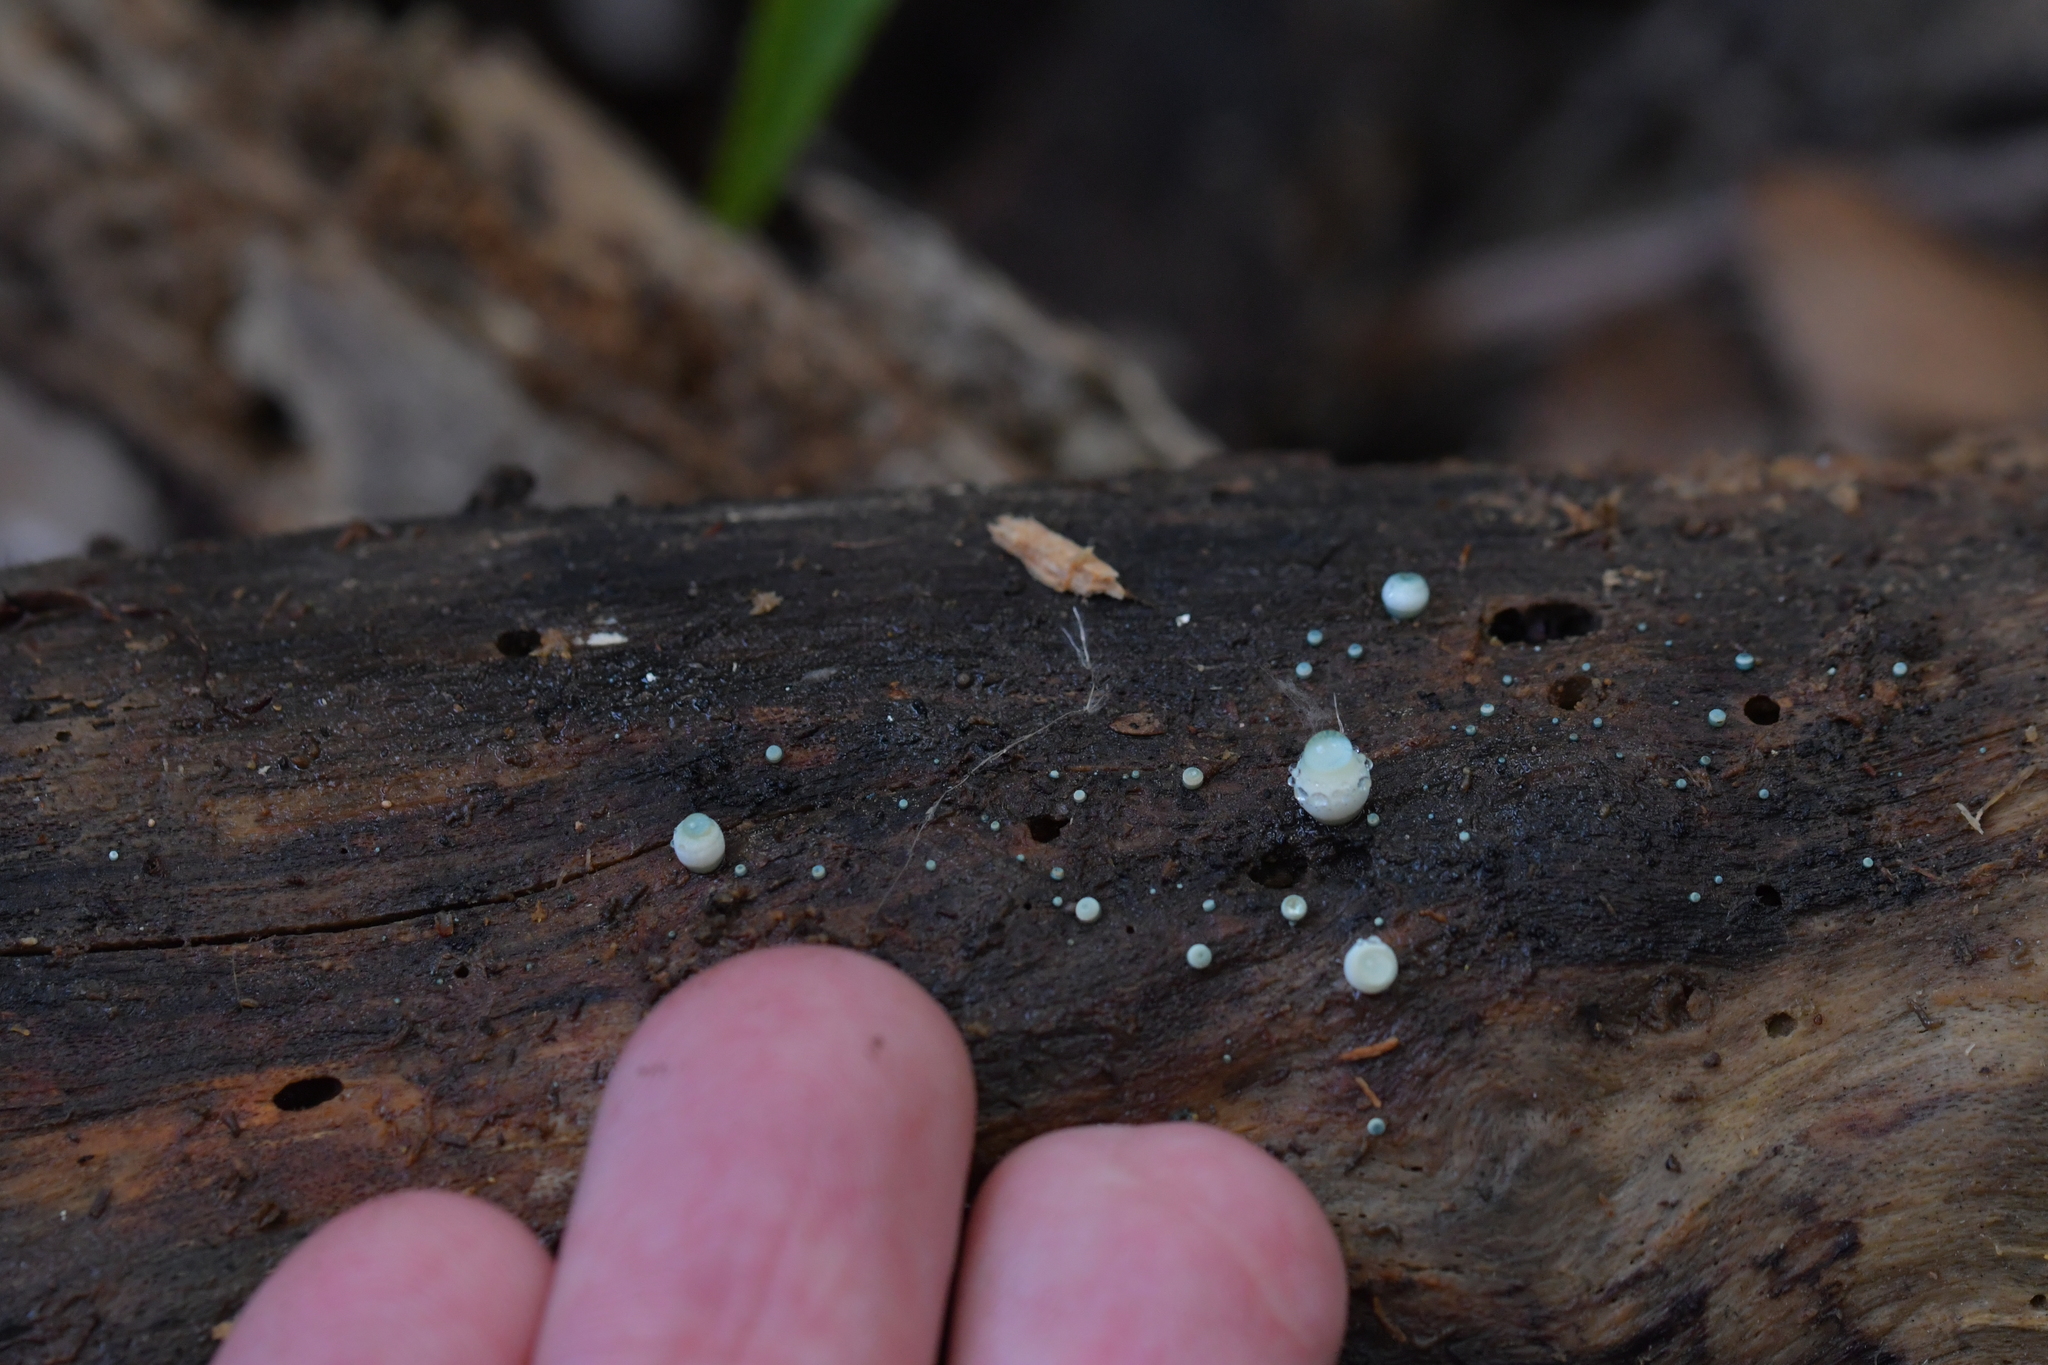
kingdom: Fungi
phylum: Basidiomycota
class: Agaricomycetes
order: Agaricales
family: Mycenaceae
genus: Mycena
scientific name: Mycena interrupta
